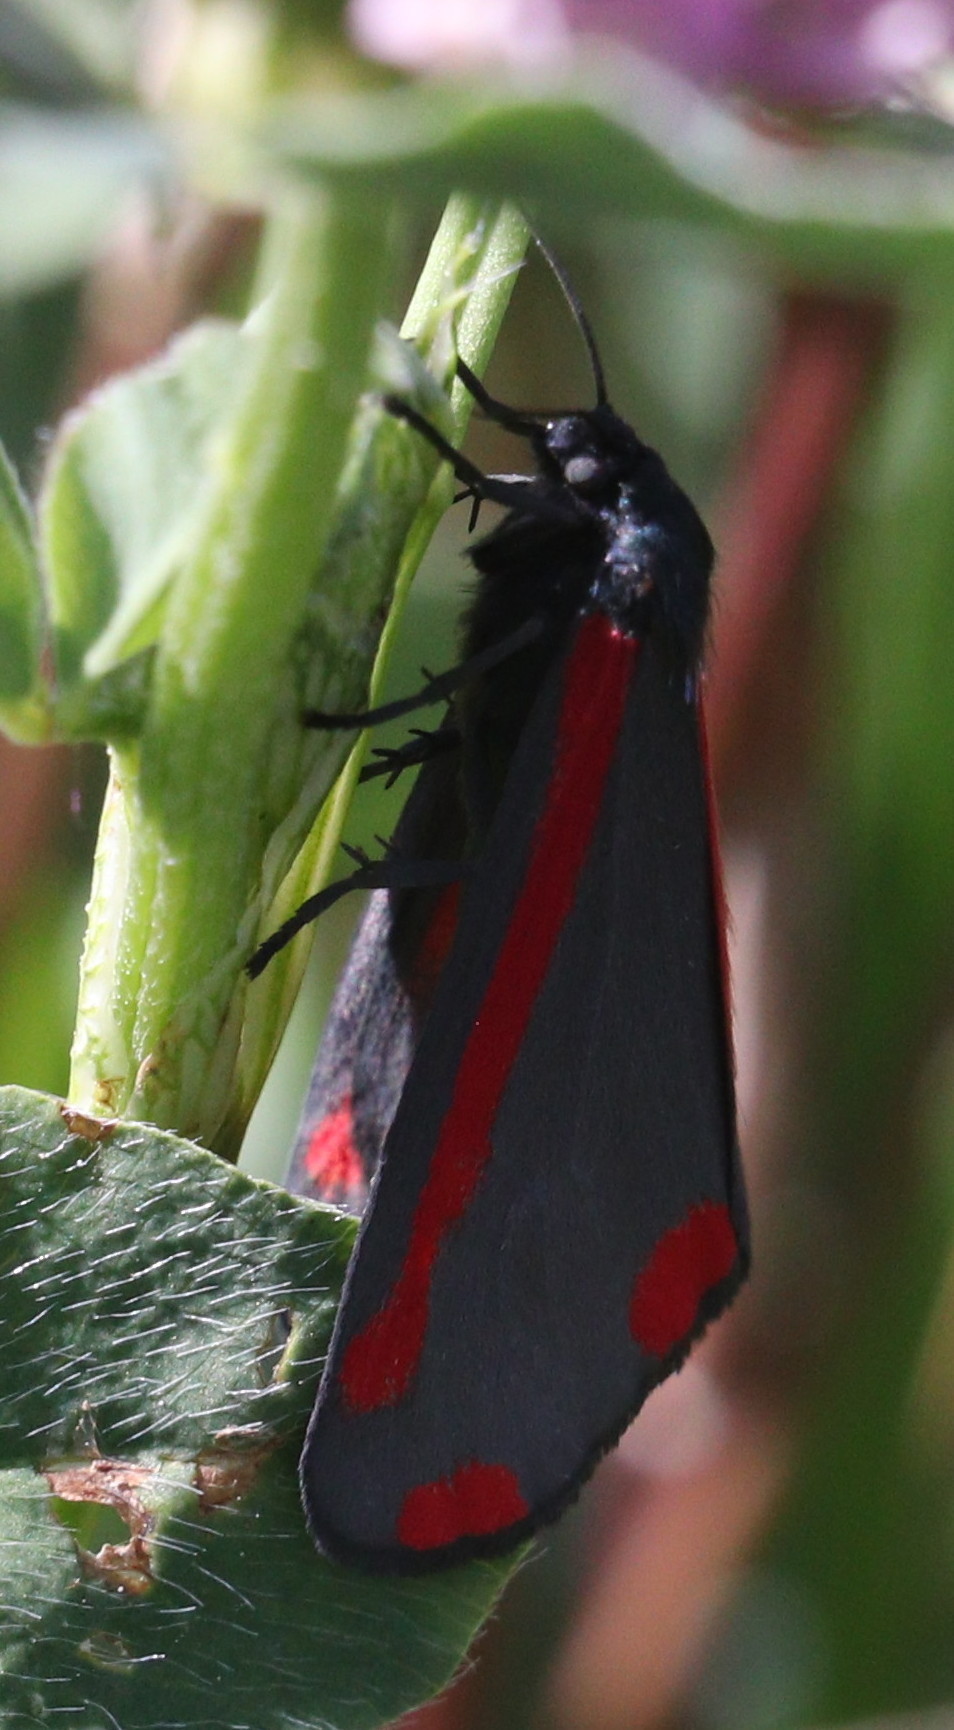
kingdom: Animalia
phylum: Arthropoda
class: Insecta
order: Lepidoptera
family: Erebidae
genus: Tyria
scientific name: Tyria jacobaeae
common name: Cinnabar
